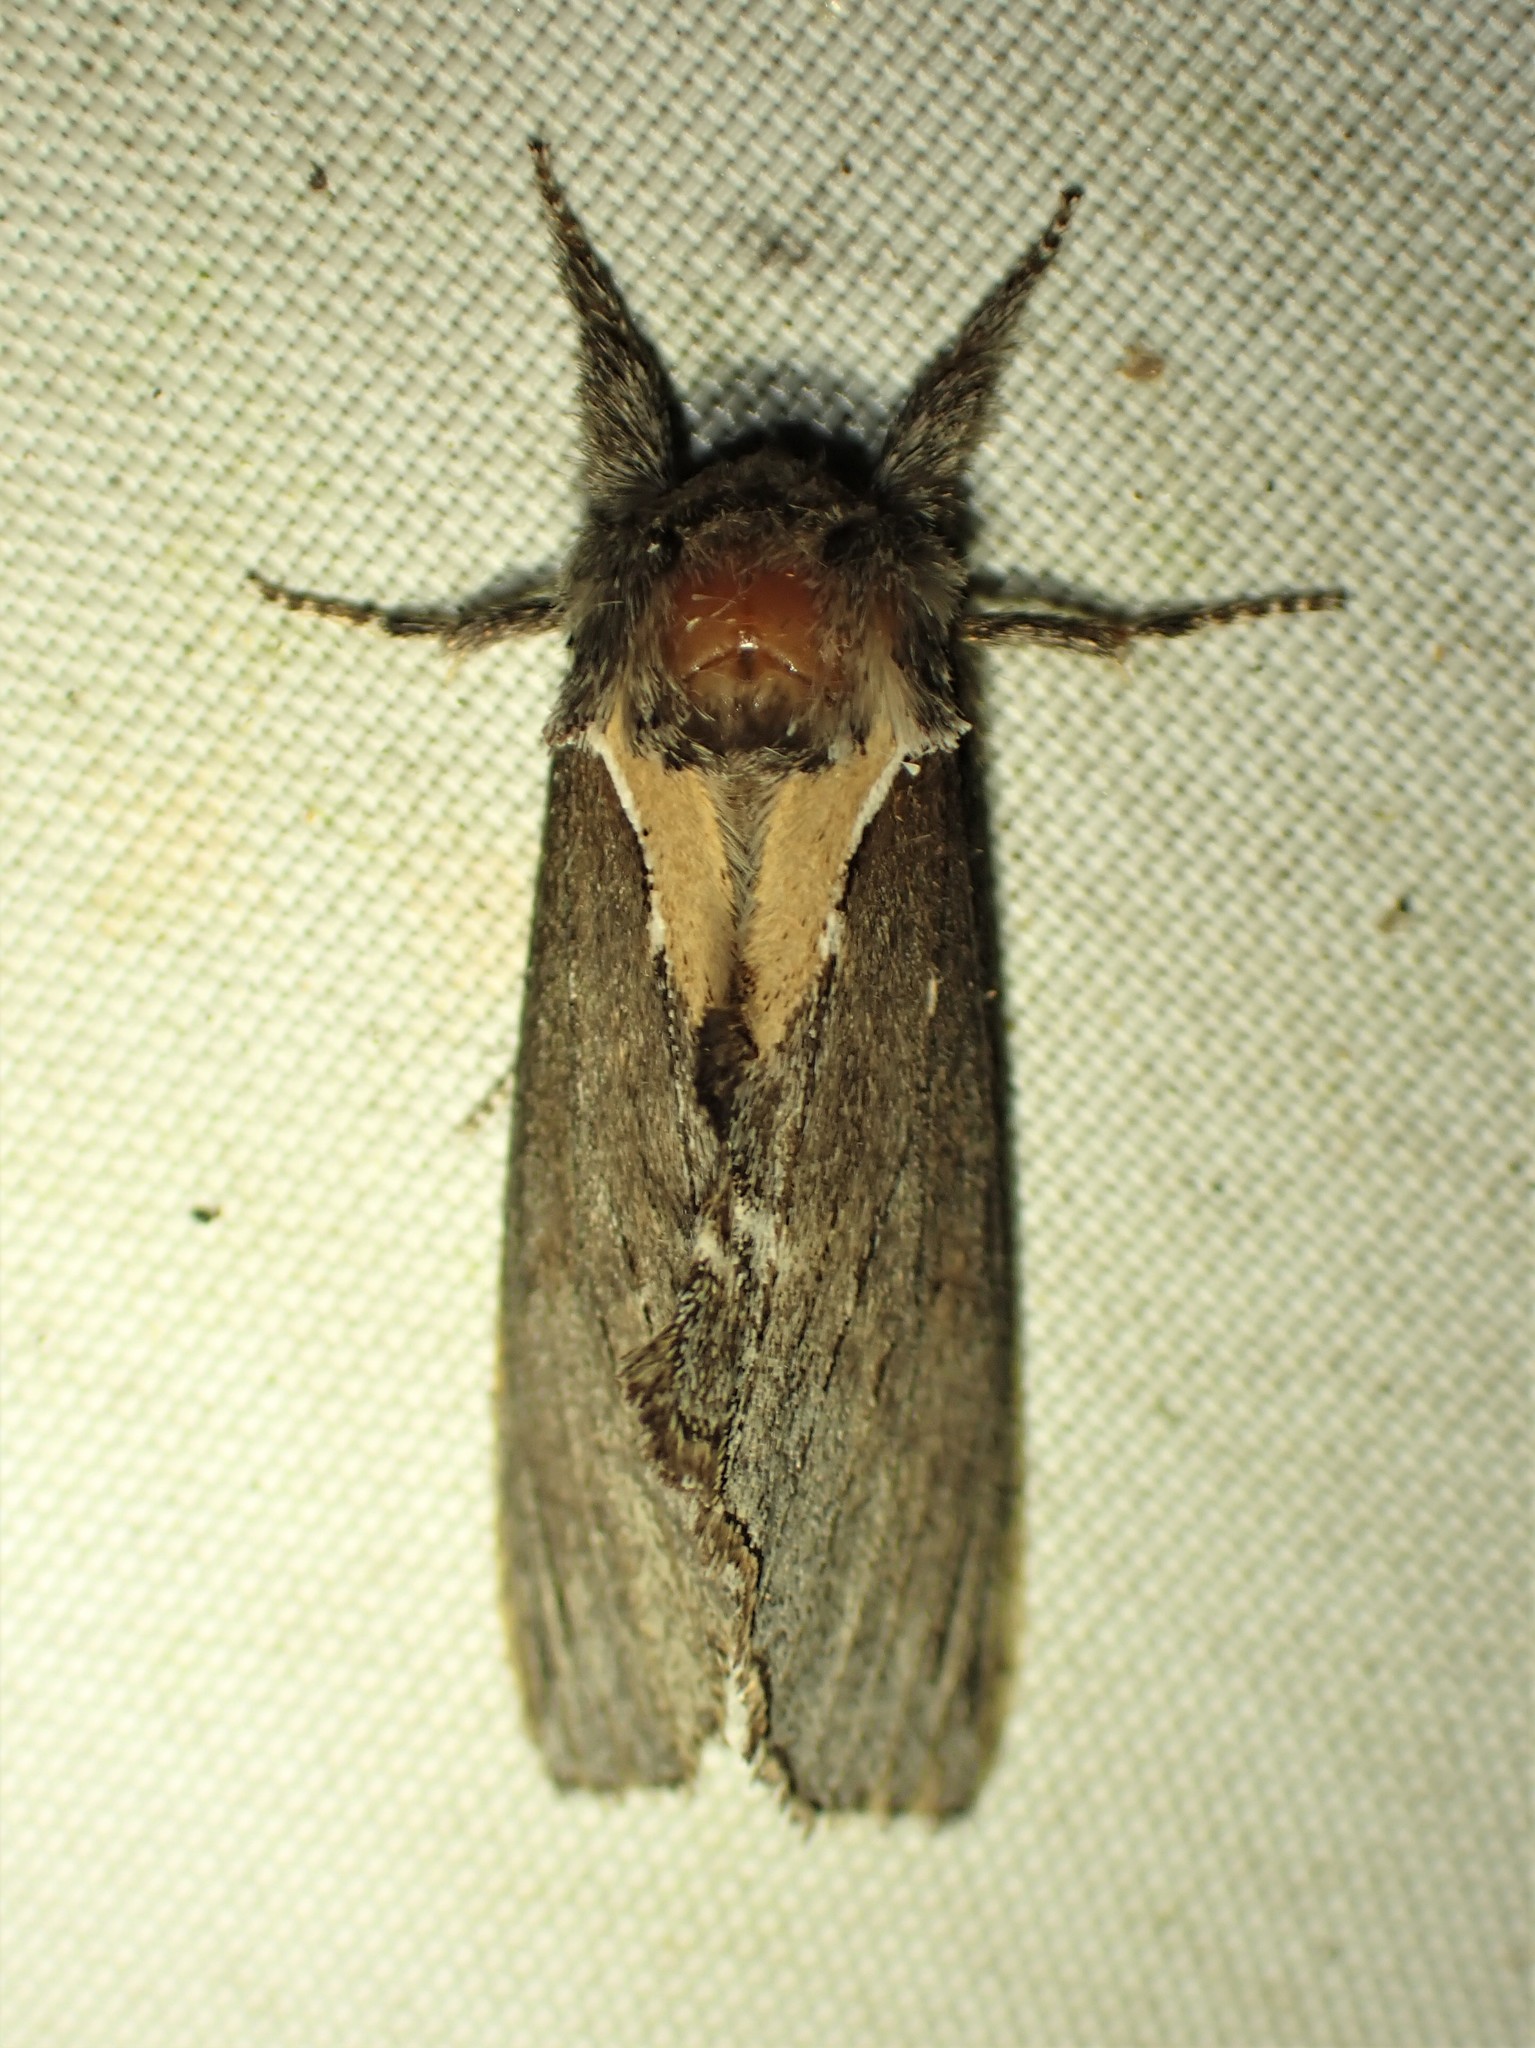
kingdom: Animalia
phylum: Arthropoda
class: Insecta
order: Lepidoptera
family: Notodontidae
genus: Pheosidea
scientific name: Pheosidea elegans
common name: Elegant prominent
